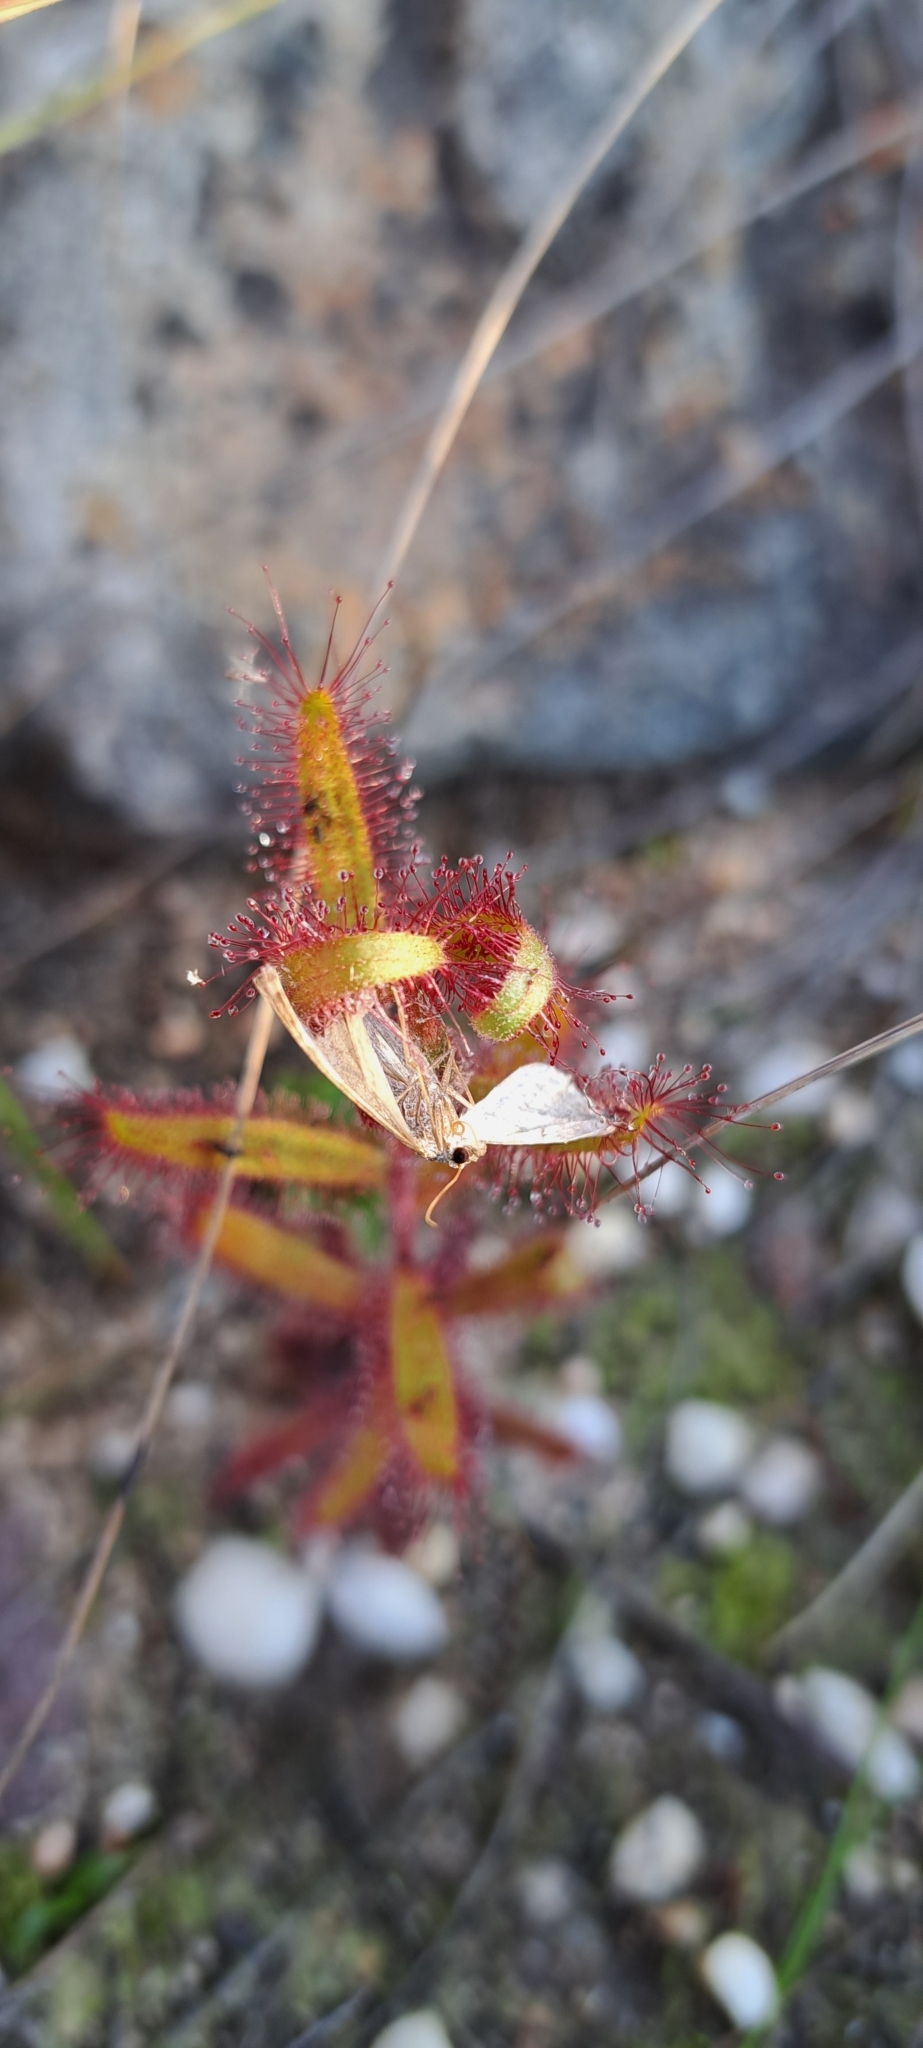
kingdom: Plantae
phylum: Tracheophyta
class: Magnoliopsida
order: Caryophyllales
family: Droseraceae
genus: Drosera
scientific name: Drosera cistiflora
